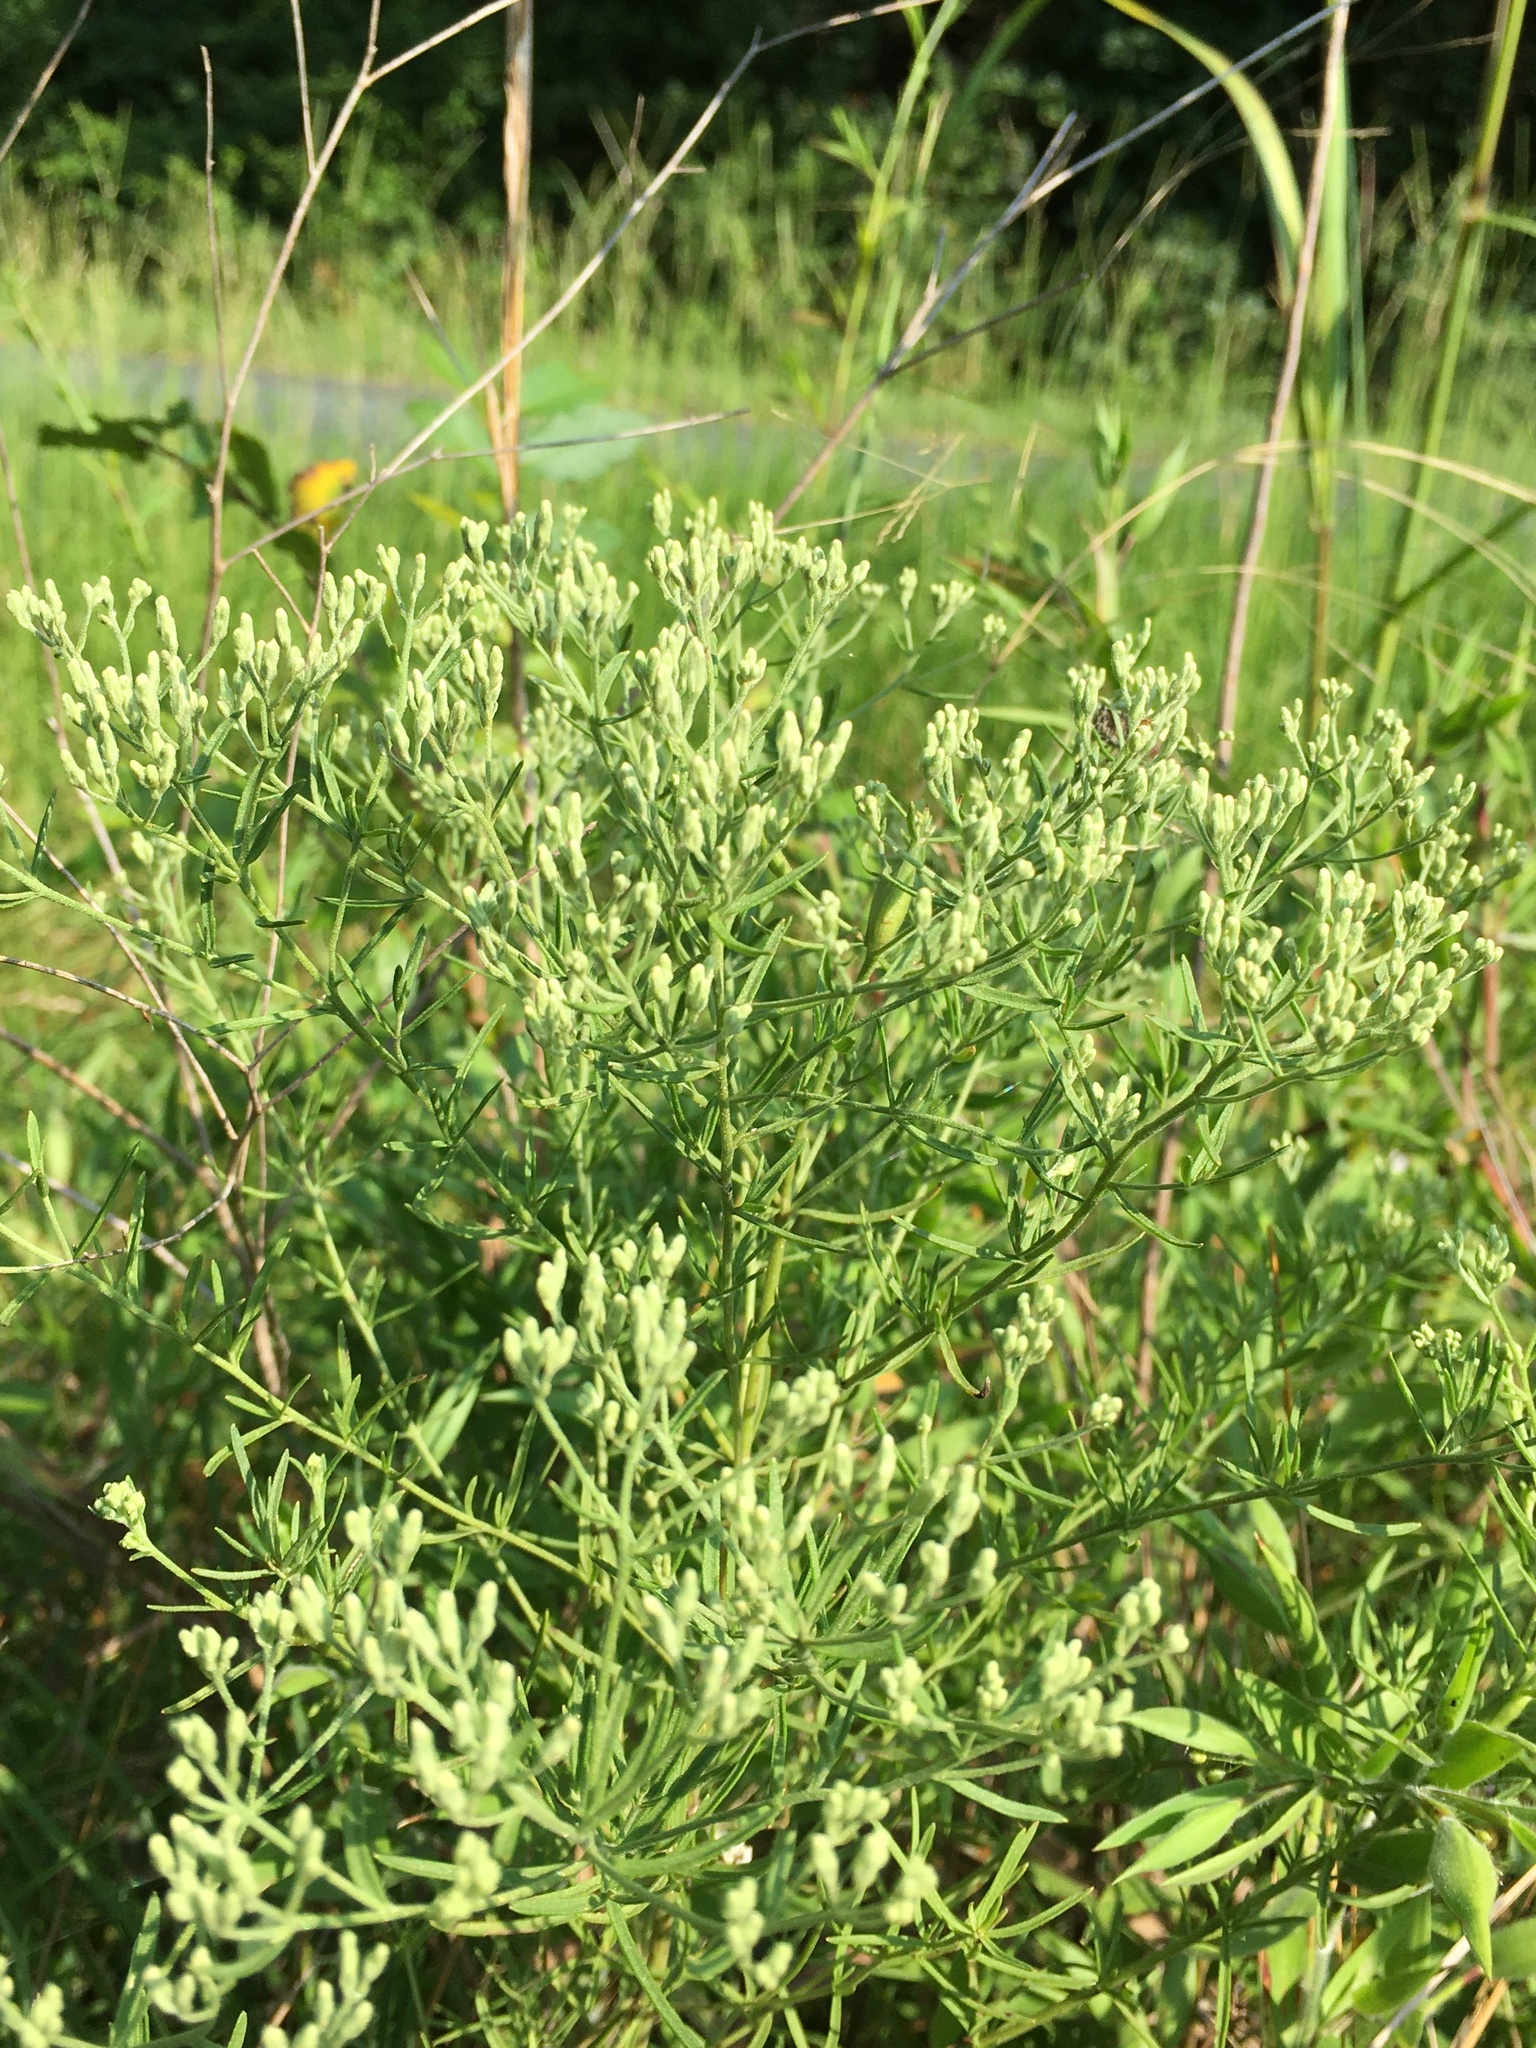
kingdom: Plantae
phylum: Tracheophyta
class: Magnoliopsida
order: Asterales
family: Asteraceae
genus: Eupatorium
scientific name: Eupatorium hyssopifolium
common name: Hyssop-leaf thoroughwort
